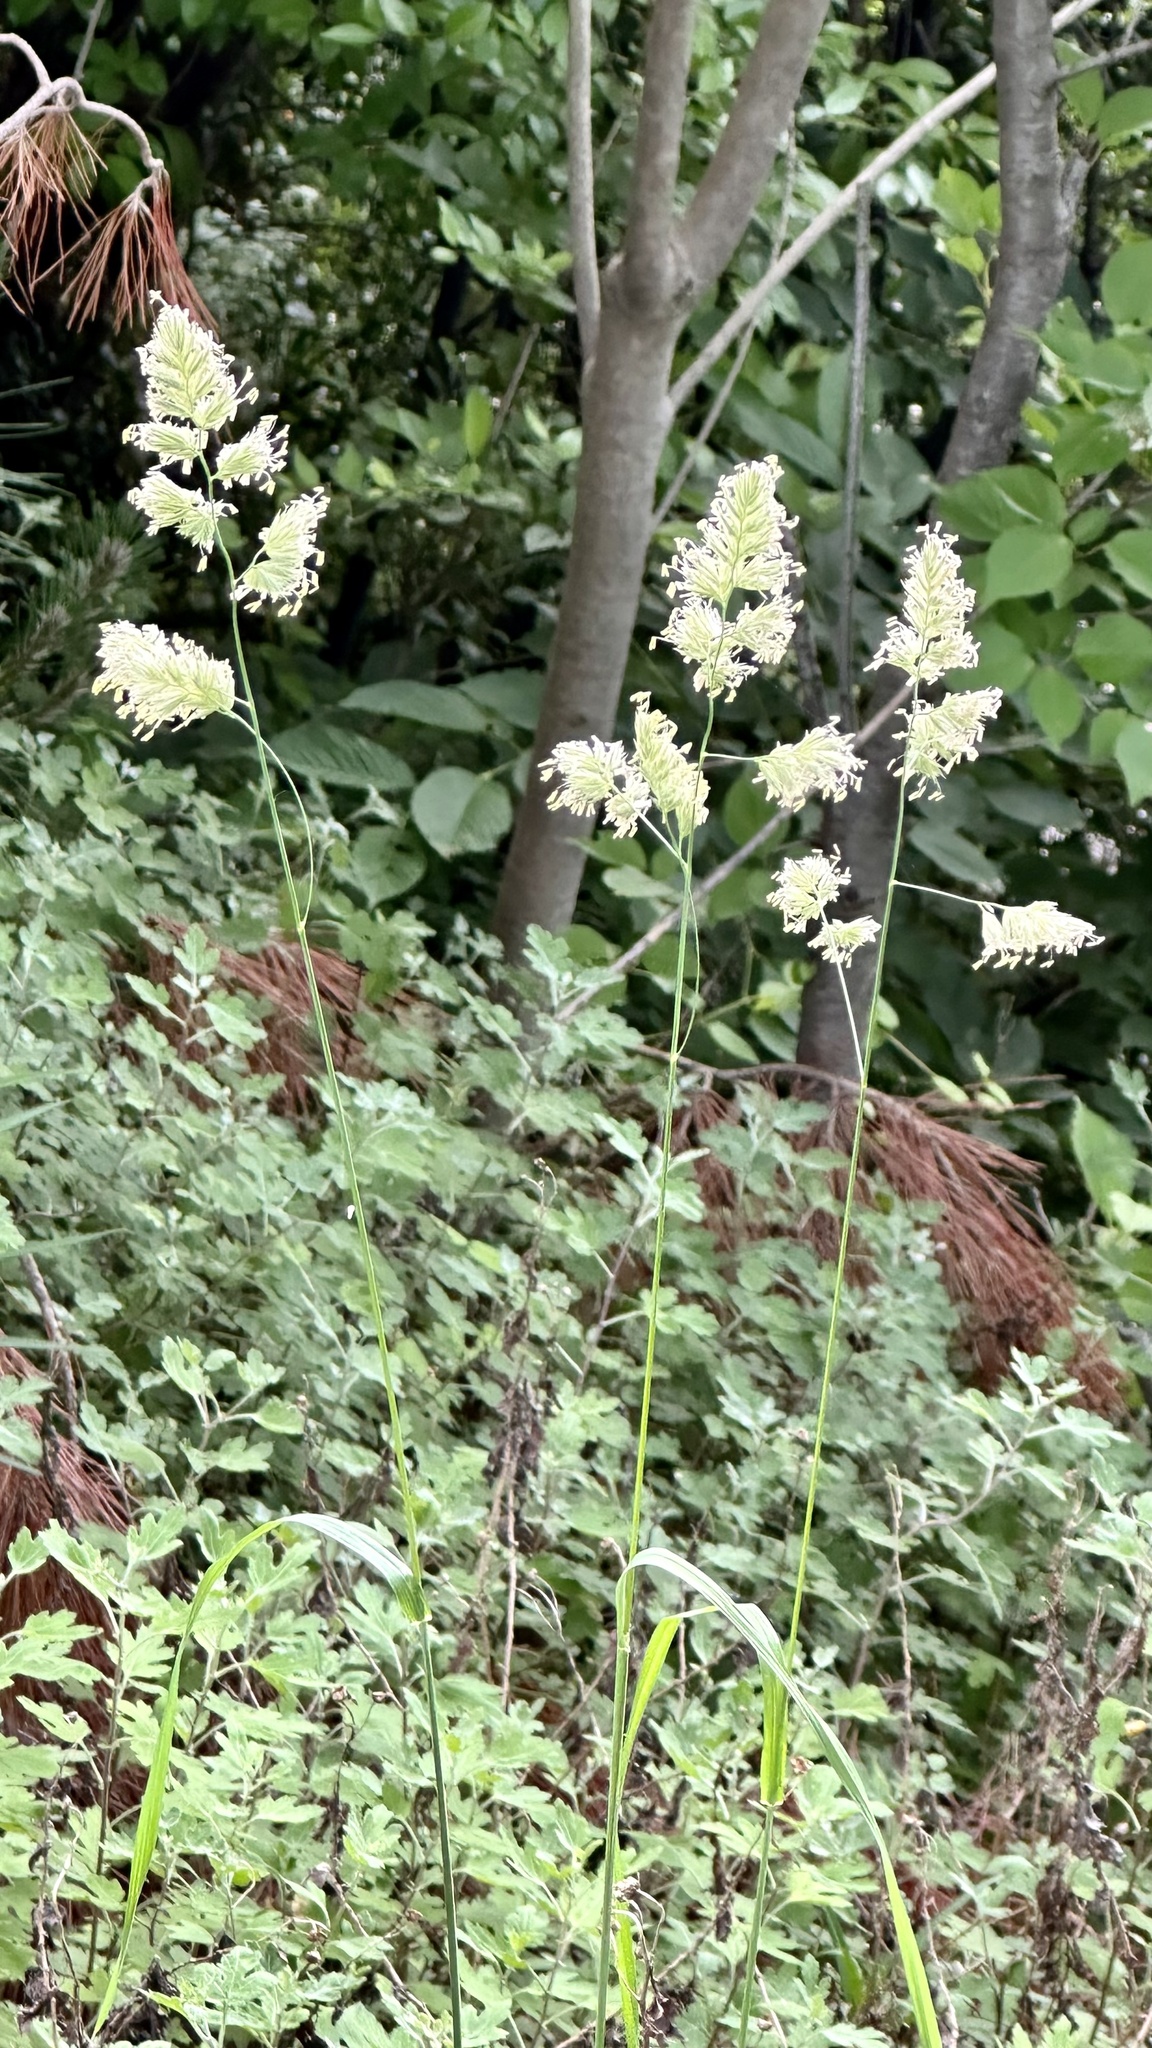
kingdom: Plantae
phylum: Tracheophyta
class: Liliopsida
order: Poales
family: Poaceae
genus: Dactylis
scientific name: Dactylis glomerata
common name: Orchardgrass
